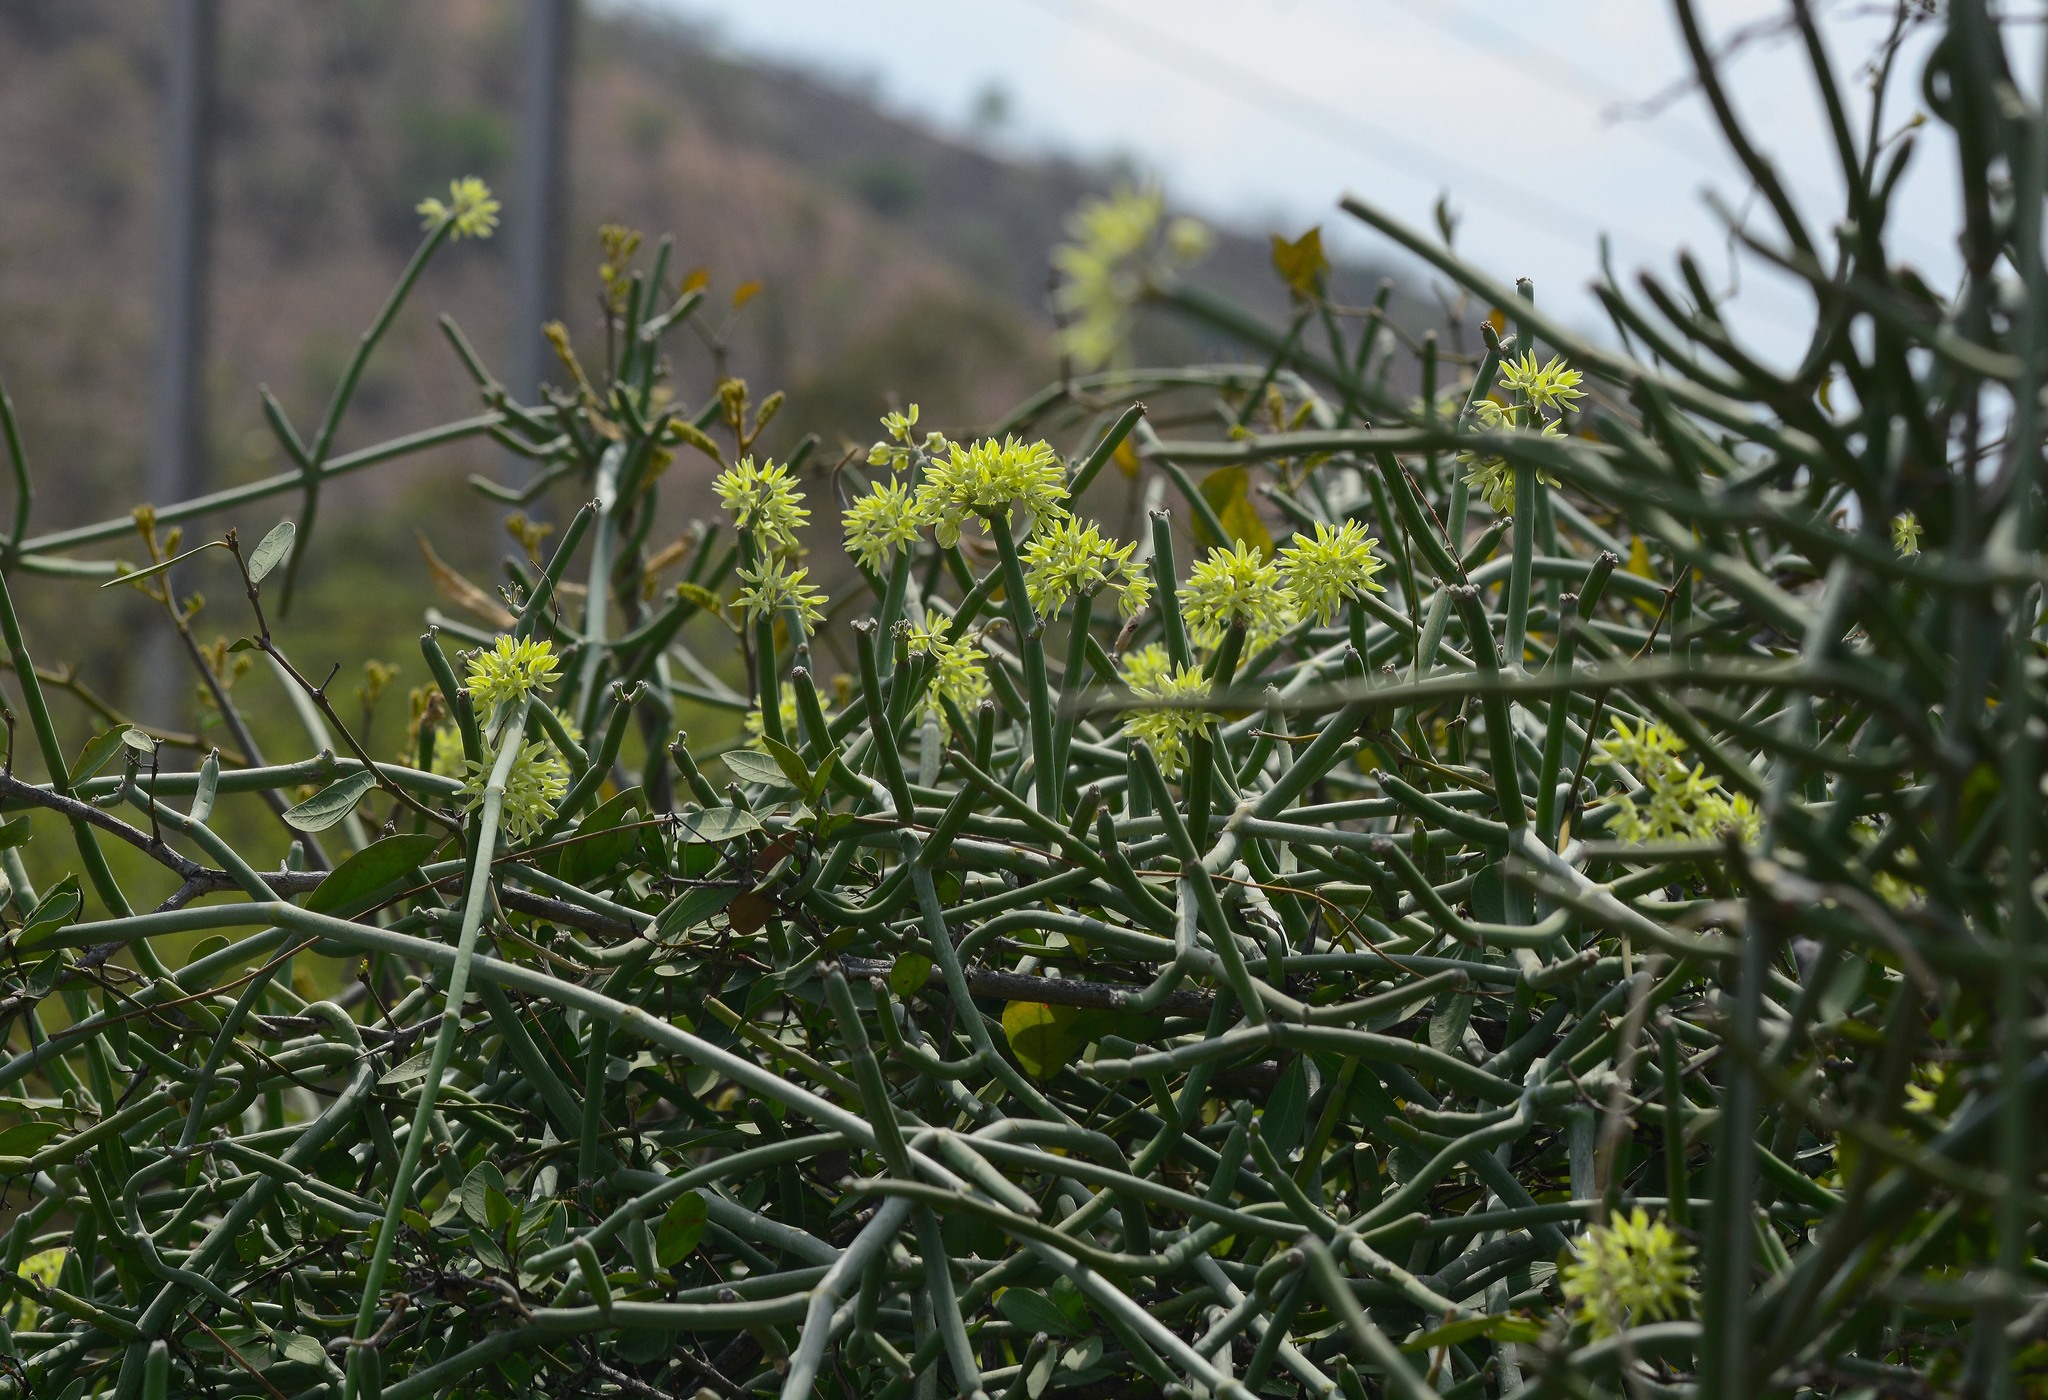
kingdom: Plantae
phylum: Tracheophyta
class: Magnoliopsida
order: Gentianales
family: Apocynaceae
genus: Cynanchum
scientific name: Cynanchum sarcomedium
